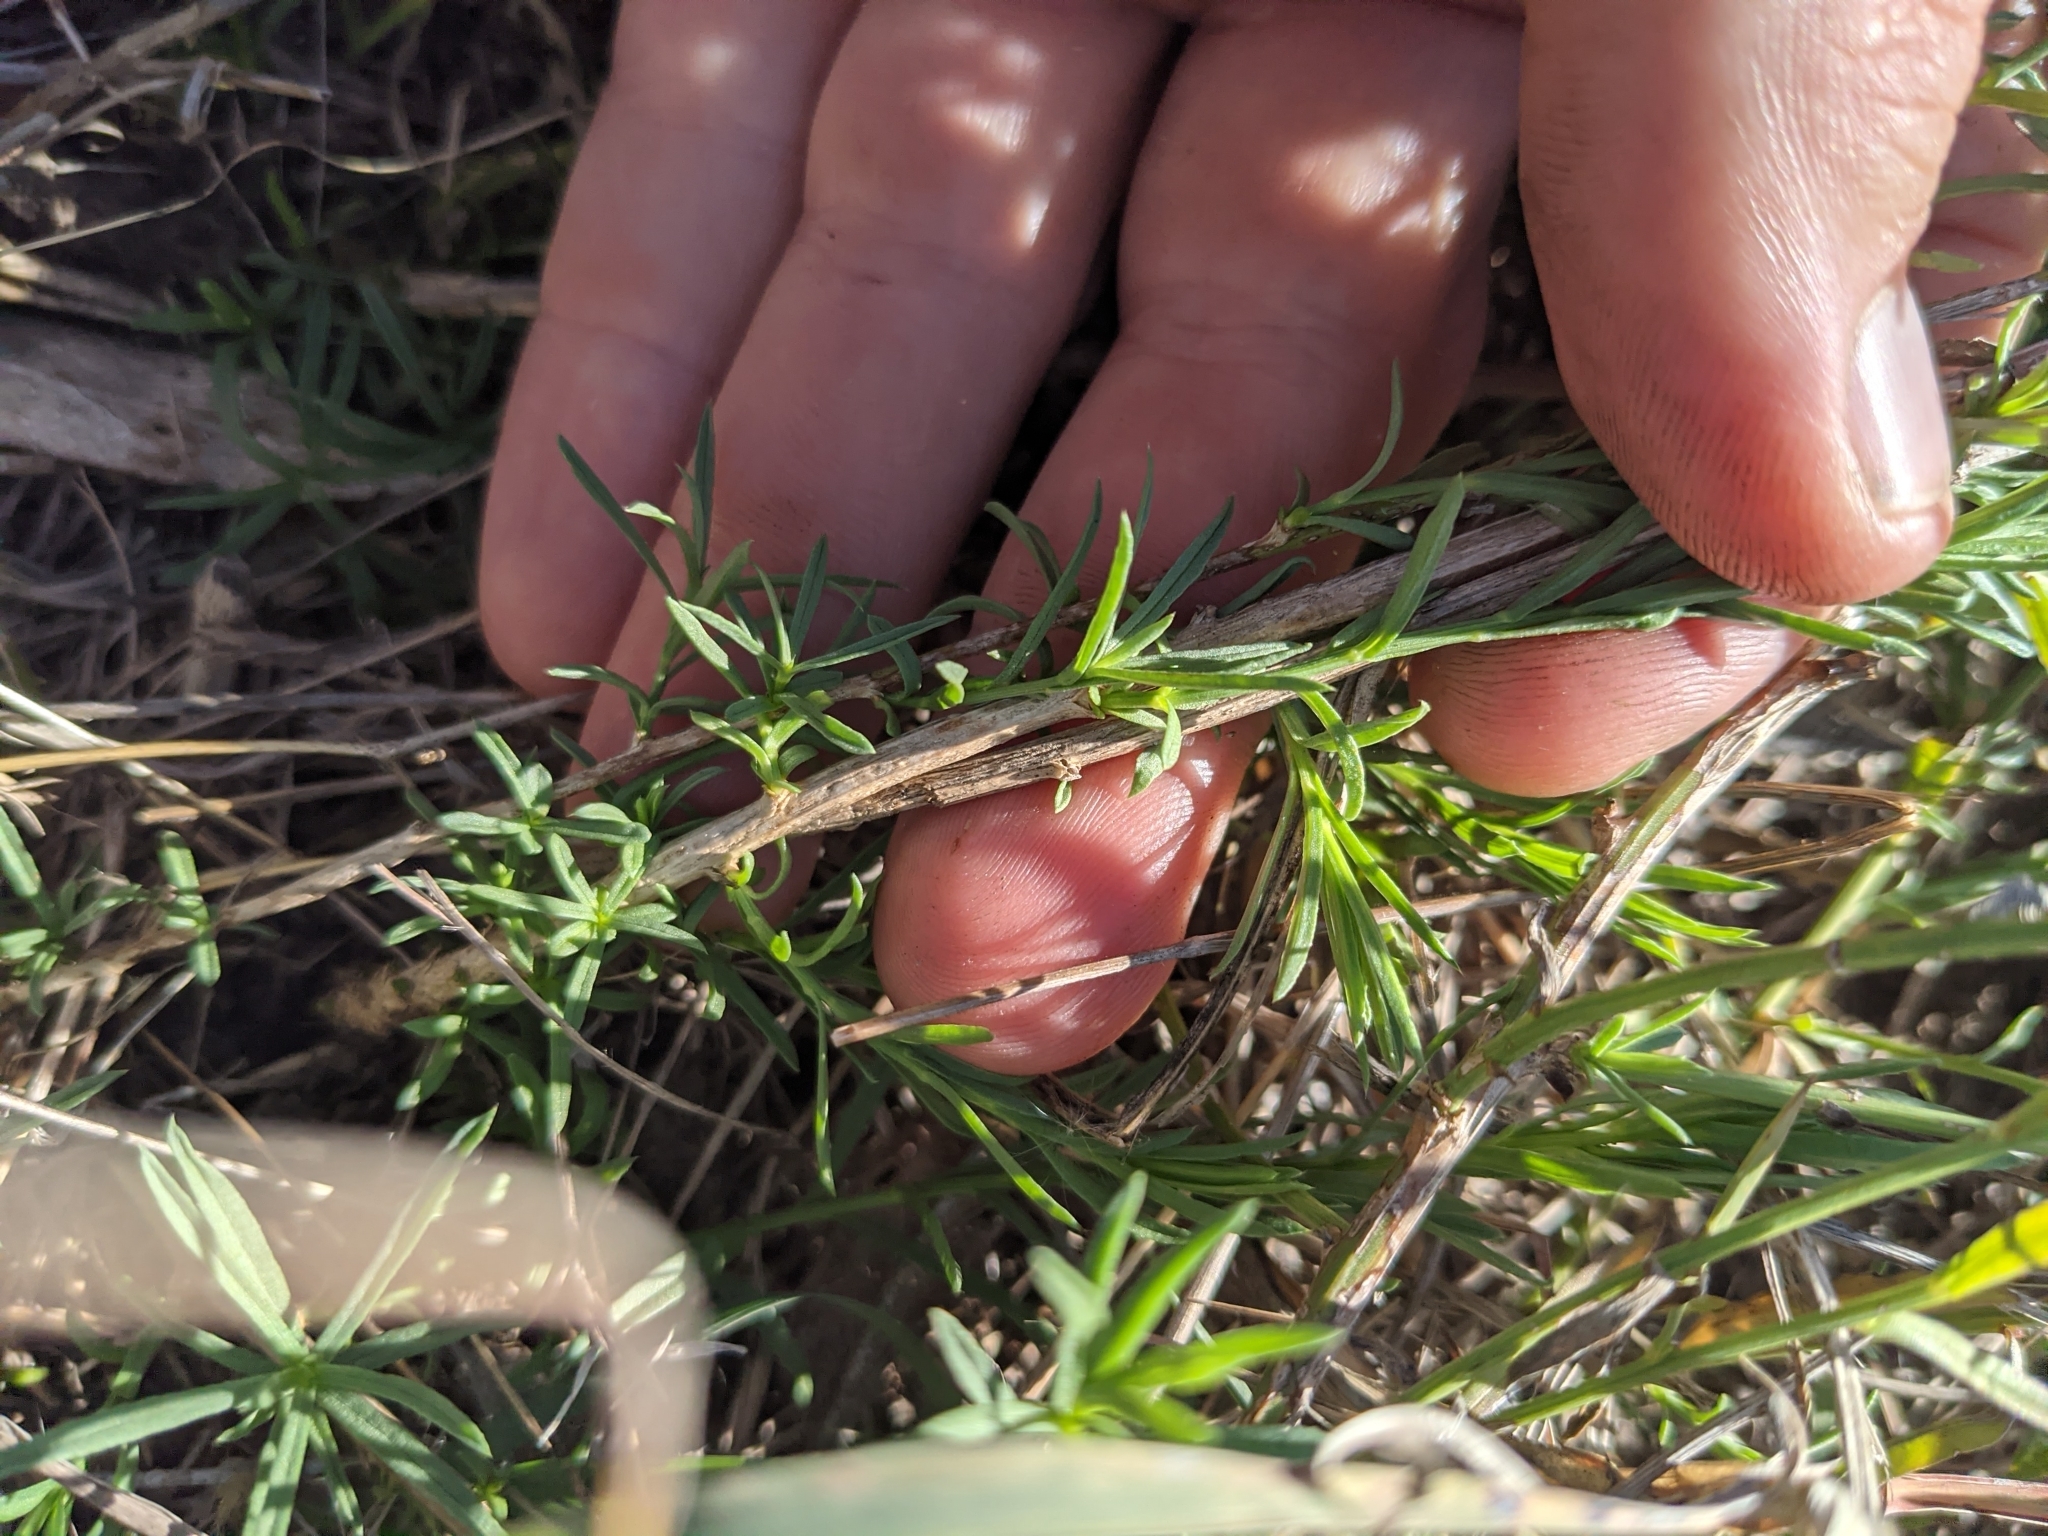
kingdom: Plantae
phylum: Tracheophyta
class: Magnoliopsida
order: Asterales
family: Asteraceae
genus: Baccharis
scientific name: Baccharis texana
